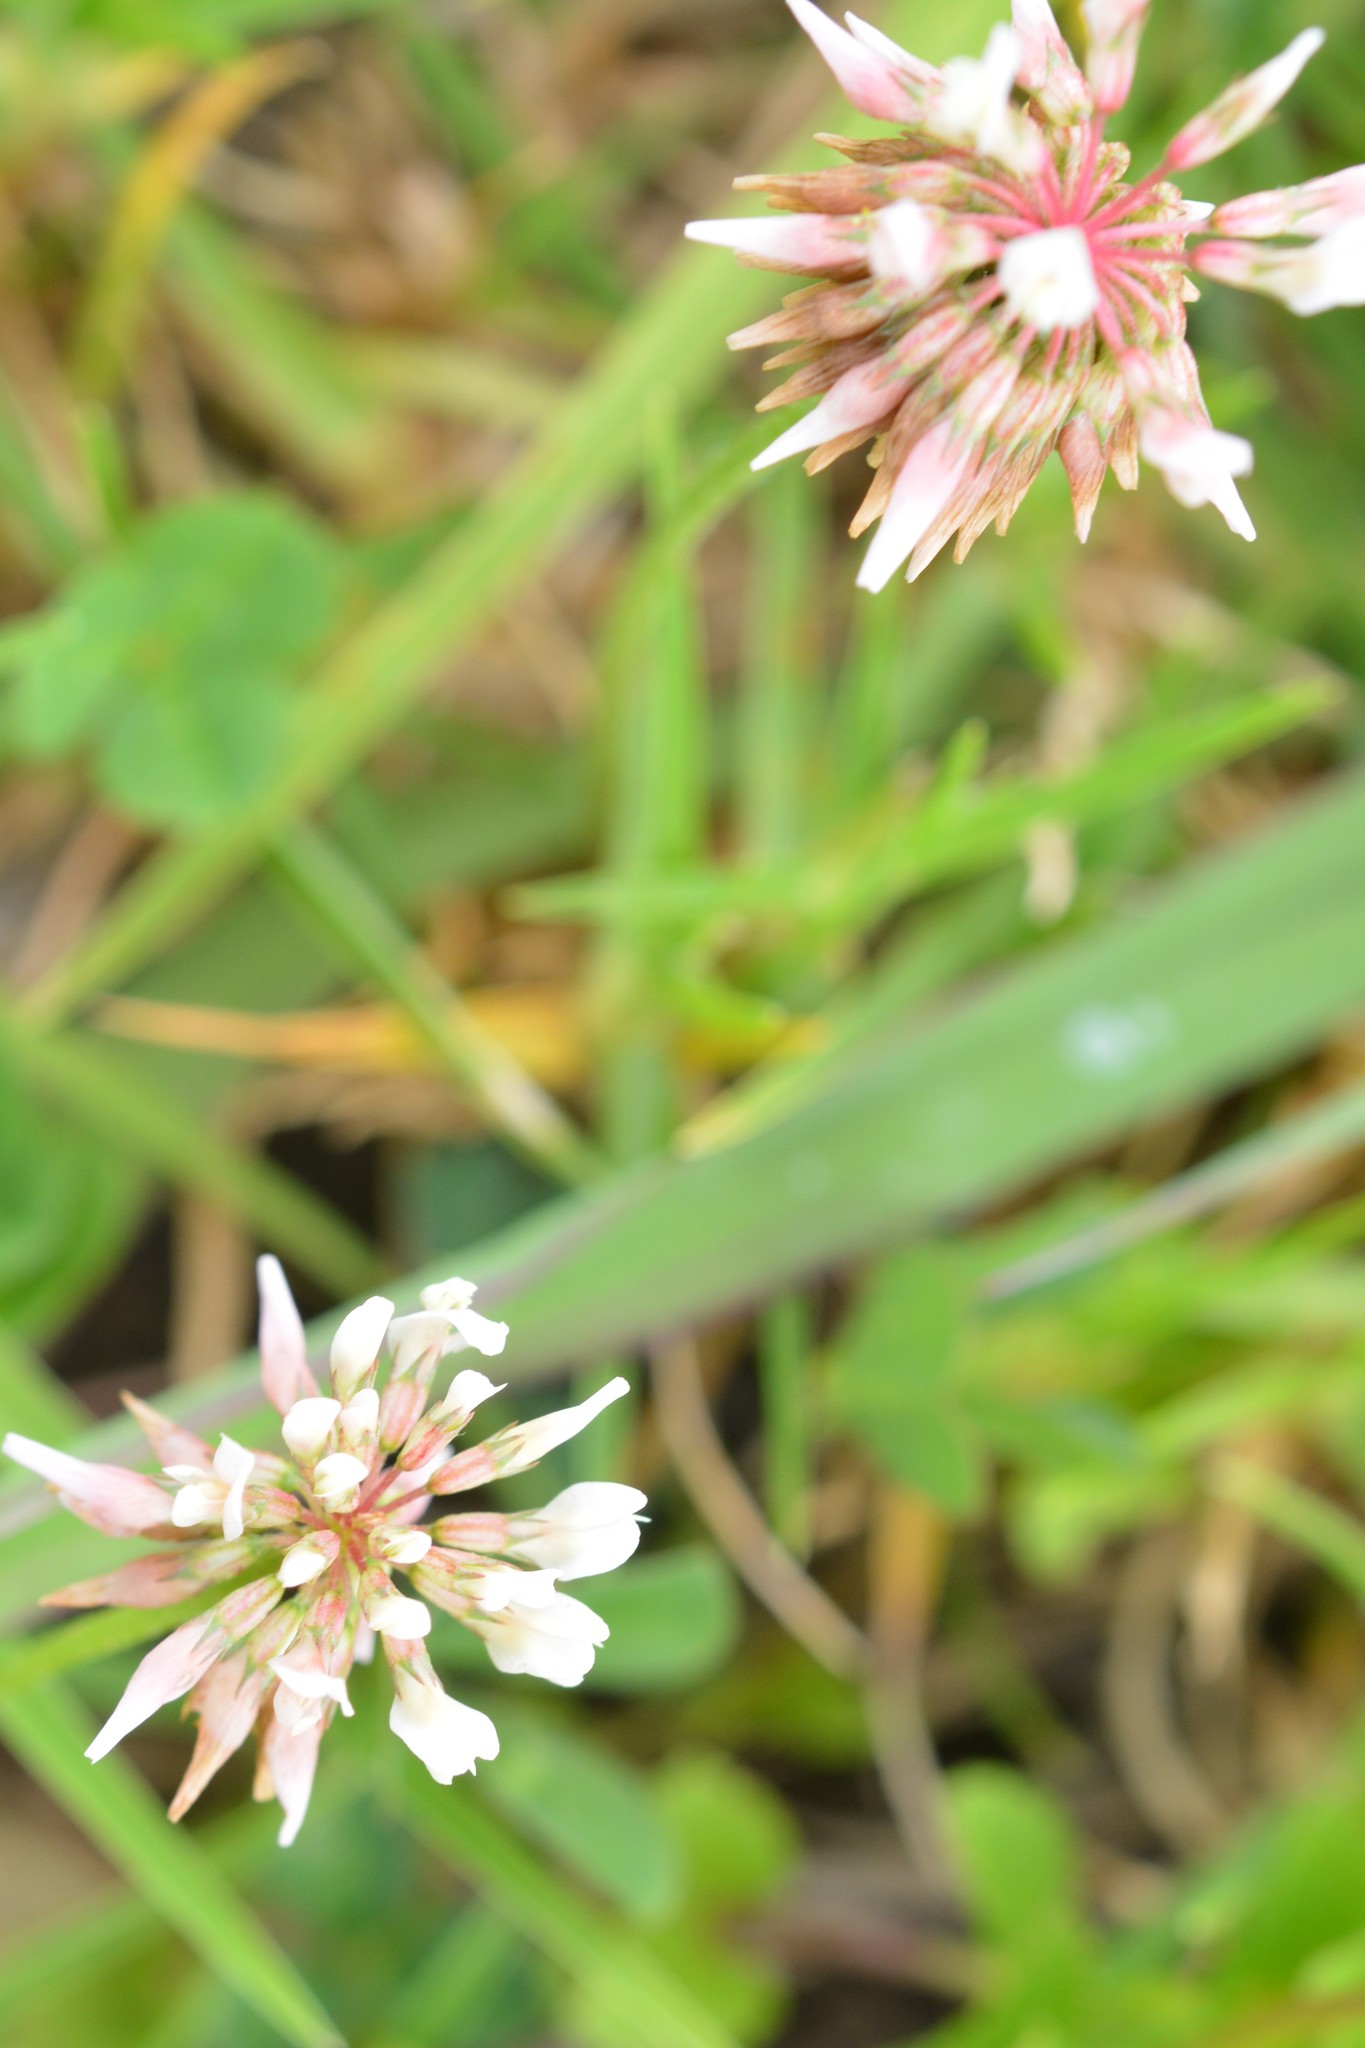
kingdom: Plantae
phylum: Tracheophyta
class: Magnoliopsida
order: Fabales
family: Fabaceae
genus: Trifolium
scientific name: Trifolium repens
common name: White clover
